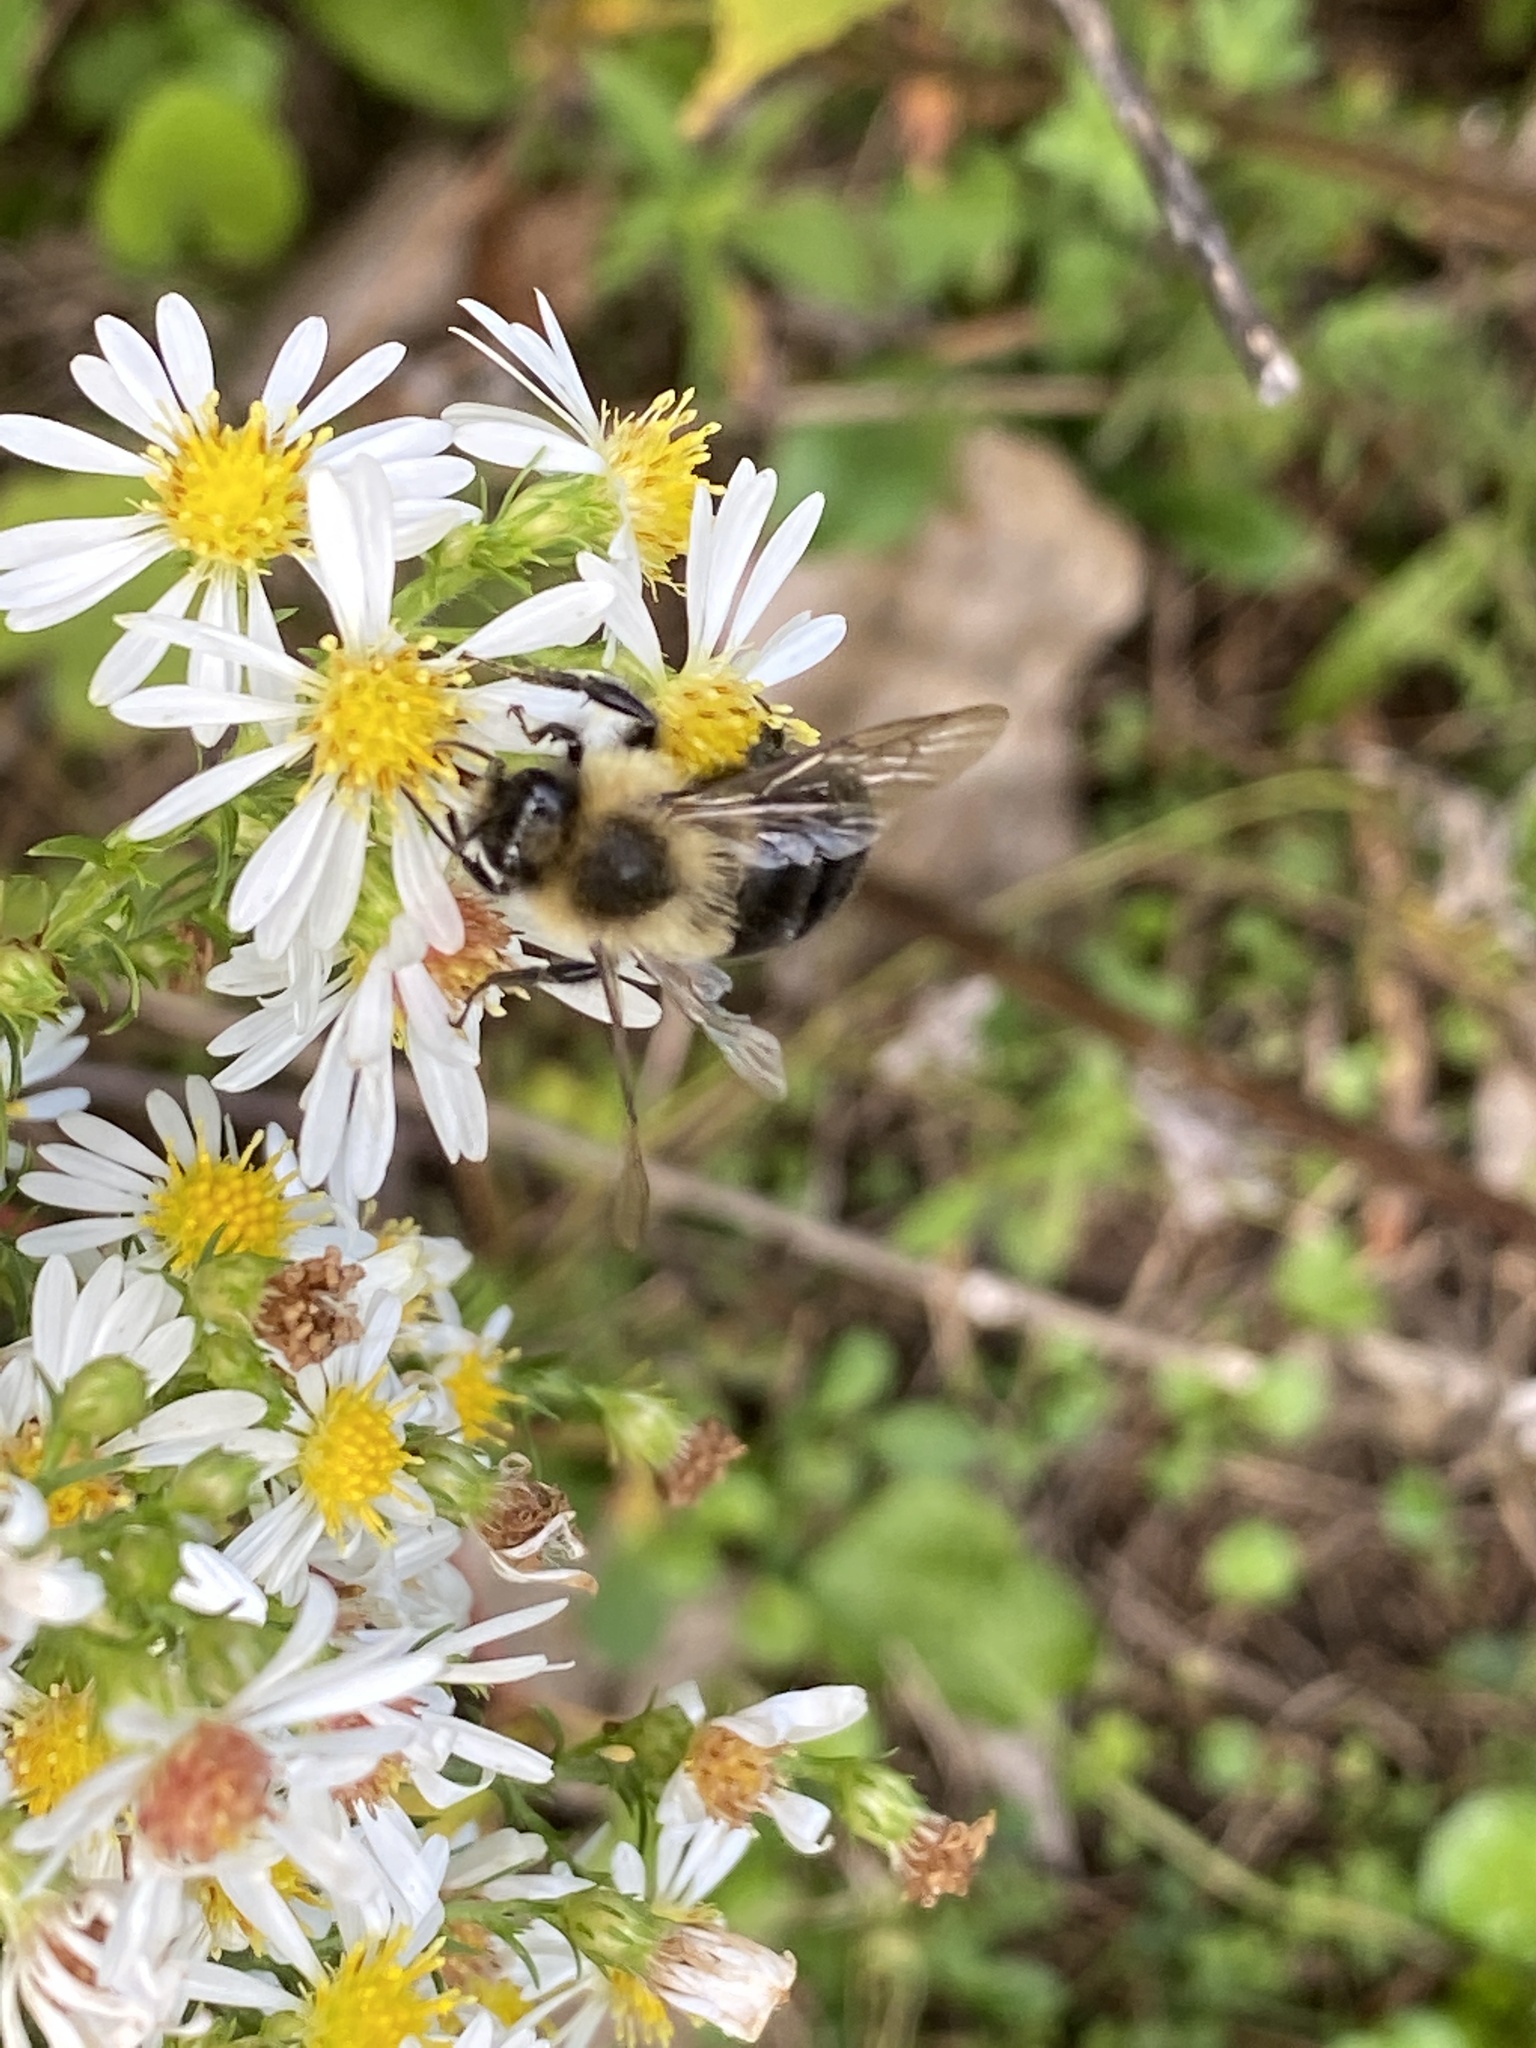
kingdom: Animalia
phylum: Arthropoda
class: Insecta
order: Hymenoptera
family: Apidae
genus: Bombus
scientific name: Bombus impatiens
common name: Common eastern bumble bee
